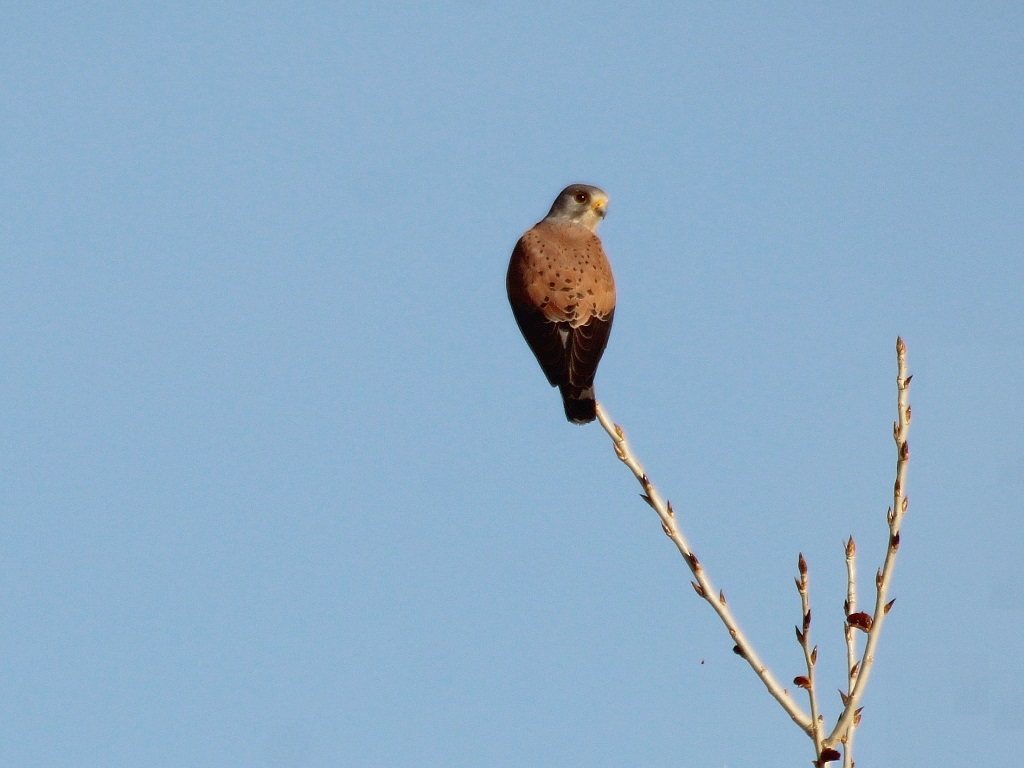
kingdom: Animalia
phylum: Chordata
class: Aves
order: Falconiformes
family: Falconidae
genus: Falco
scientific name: Falco tinnunculus
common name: Common kestrel
